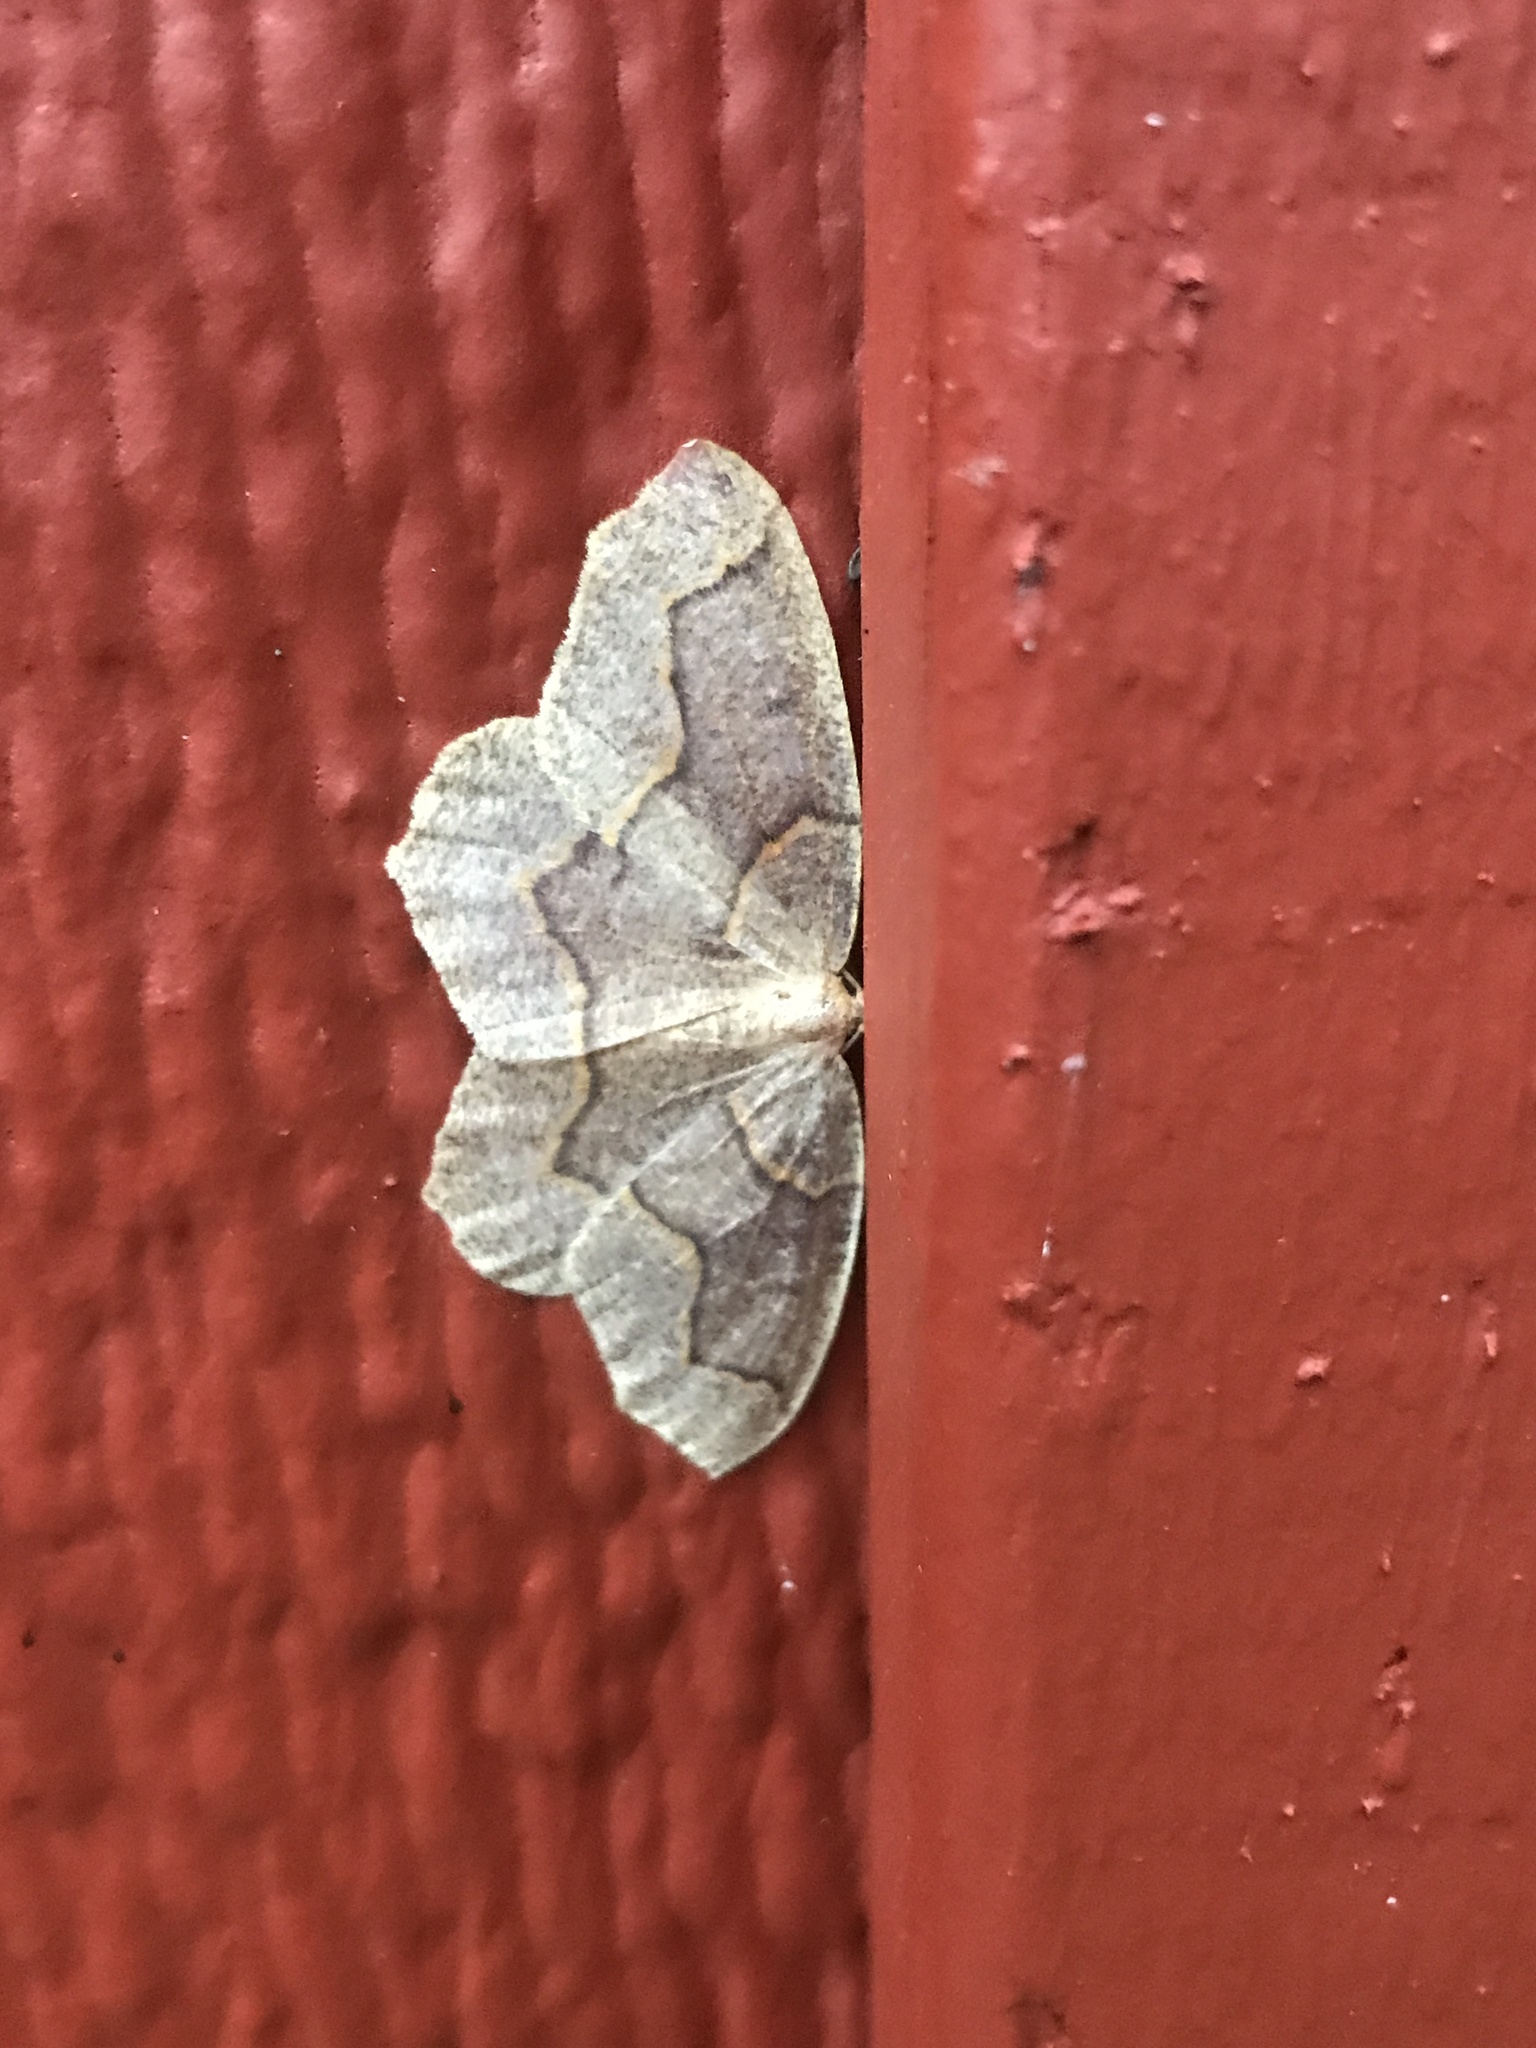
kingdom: Animalia
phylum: Arthropoda
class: Insecta
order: Lepidoptera
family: Geometridae
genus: Lambdina
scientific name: Lambdina fiscellaria
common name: Hemlock looper
